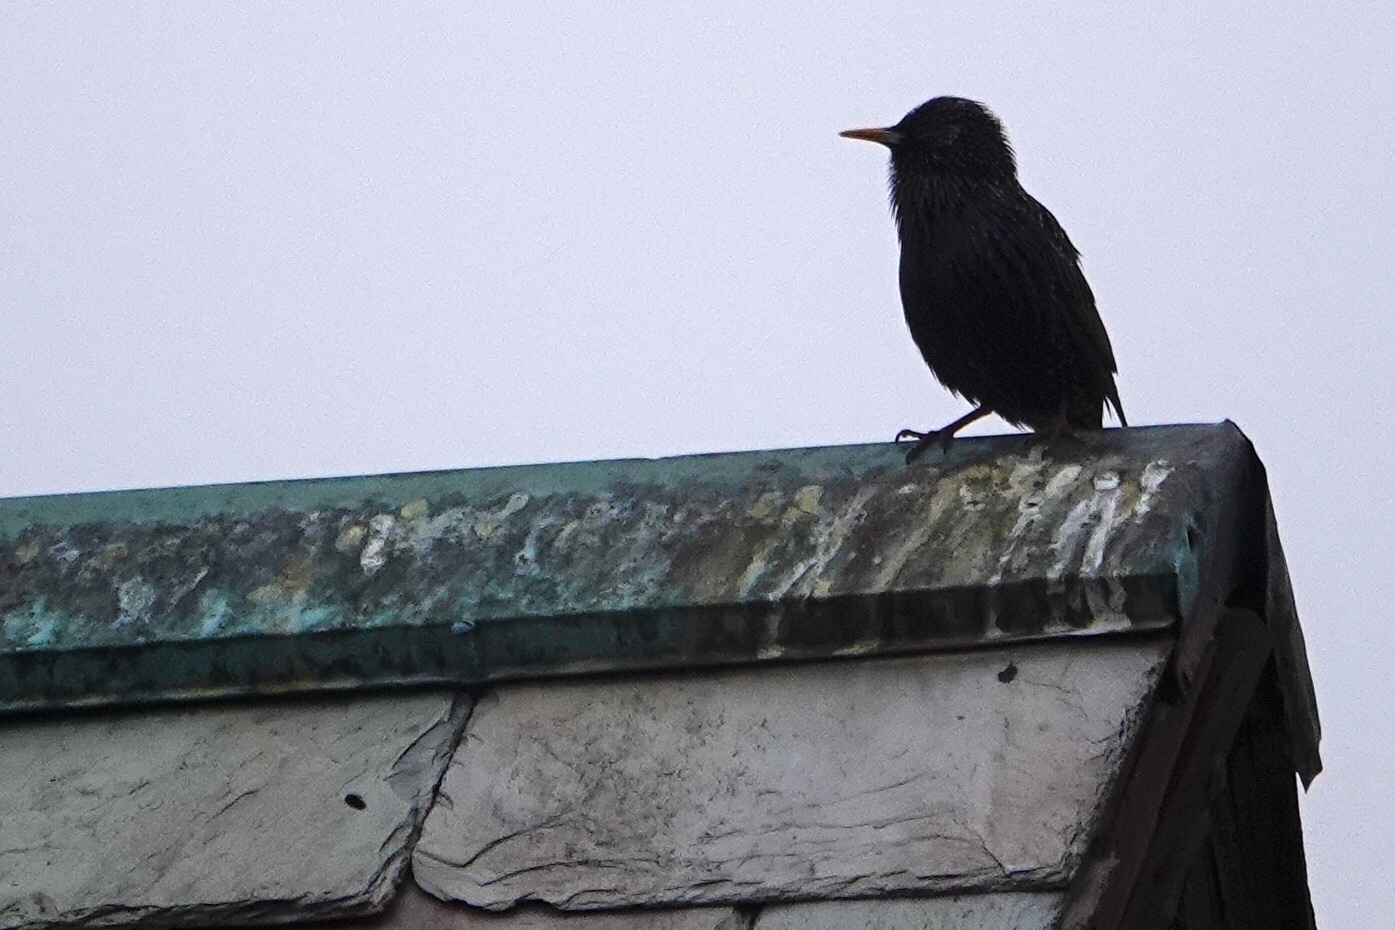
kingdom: Animalia
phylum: Chordata
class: Aves
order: Passeriformes
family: Sturnidae
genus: Sturnus
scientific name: Sturnus vulgaris
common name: Common starling
